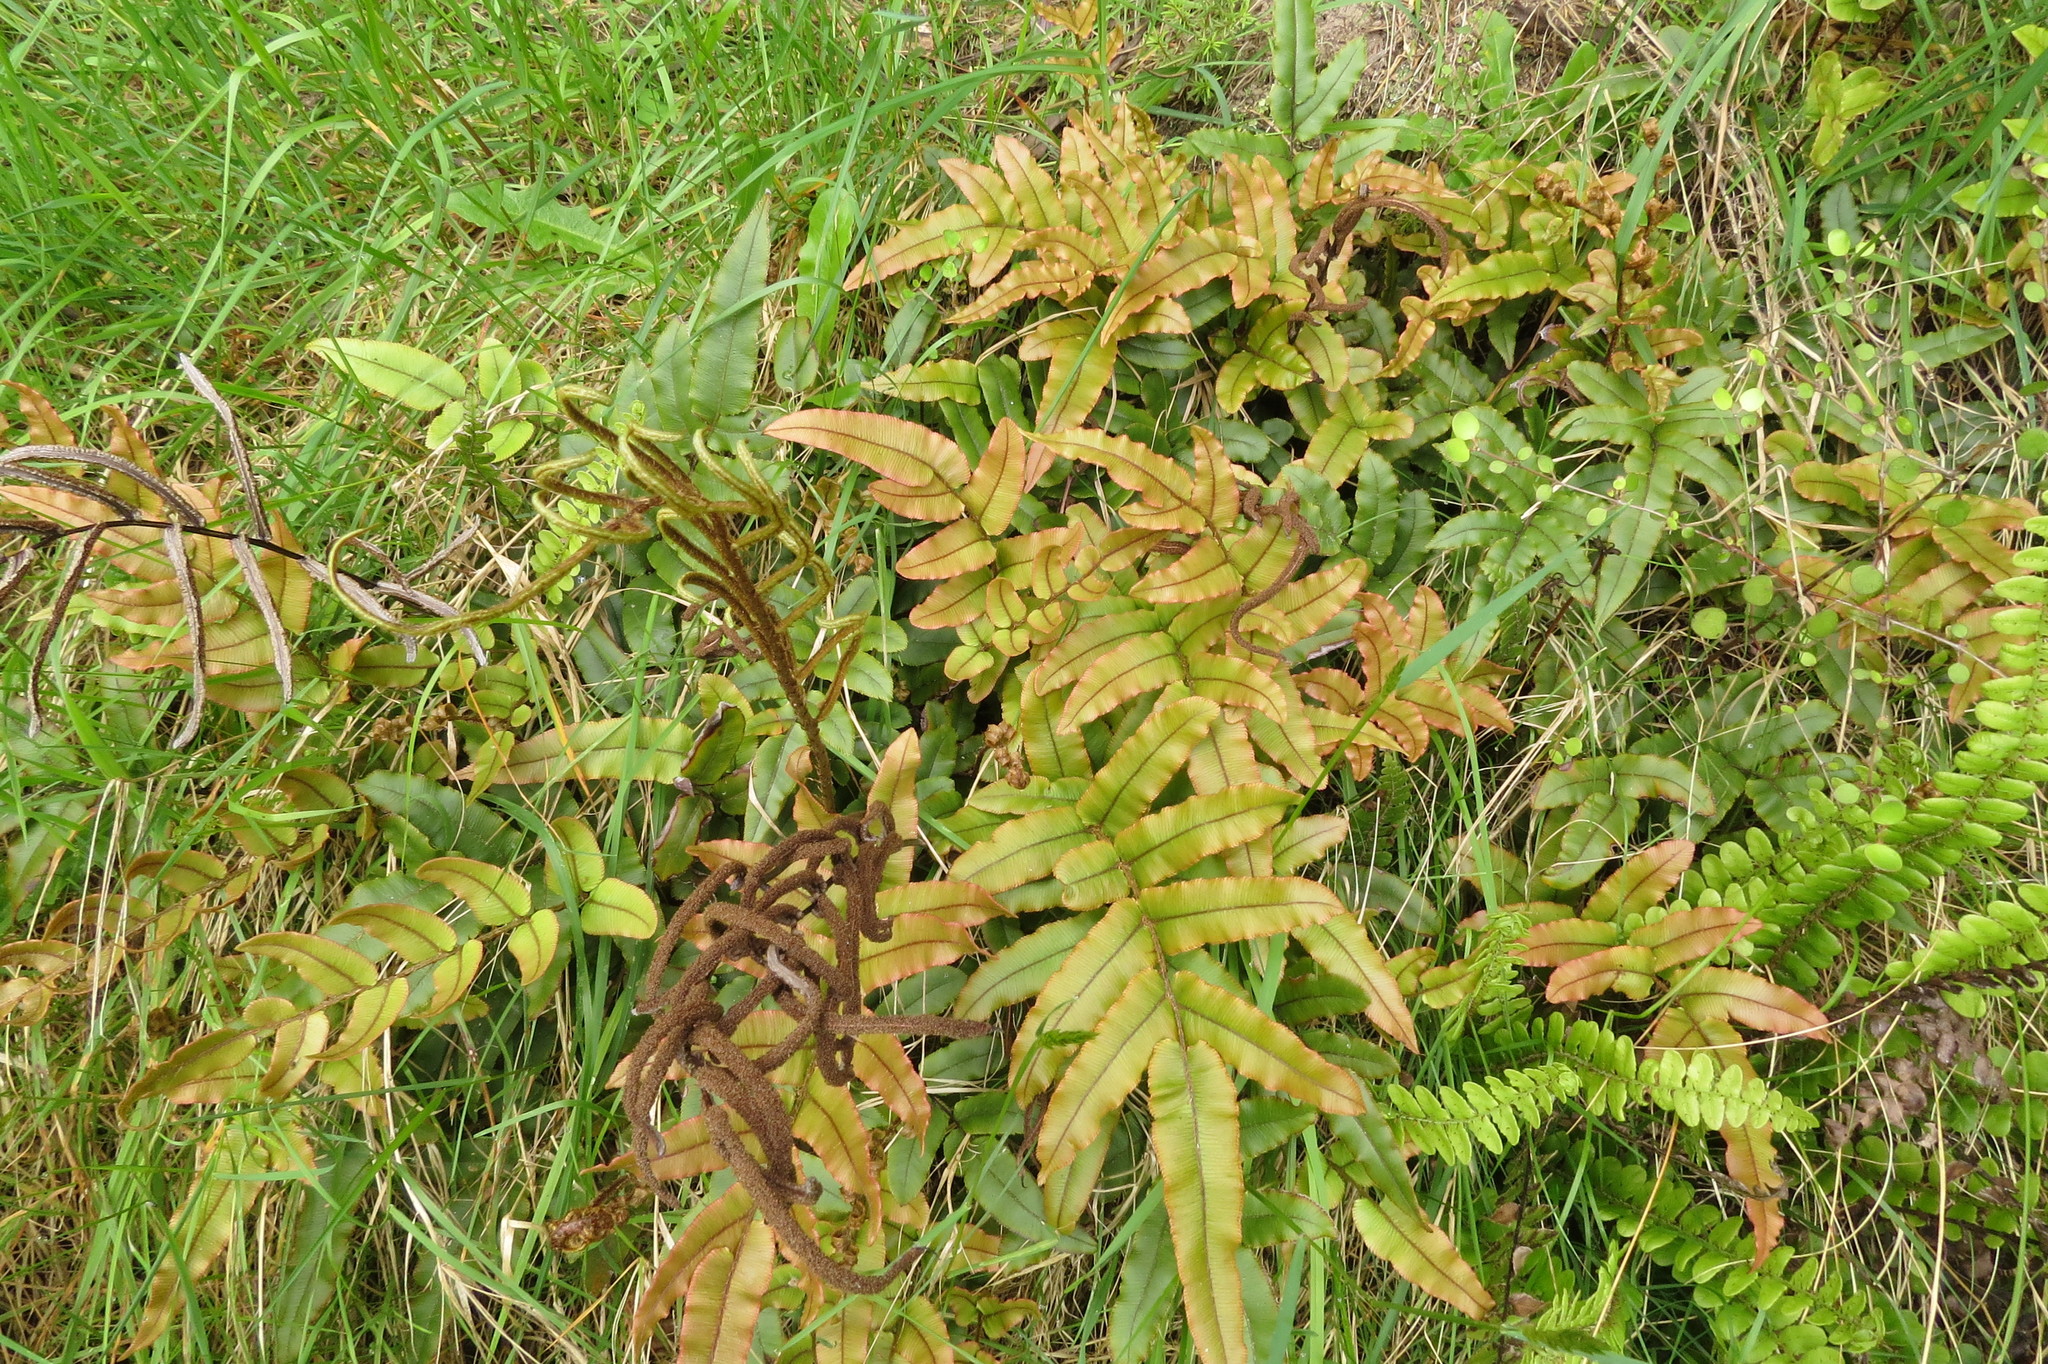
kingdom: Plantae
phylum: Tracheophyta
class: Polypodiopsida
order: Polypodiales
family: Blechnaceae
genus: Parablechnum
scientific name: Parablechnum procerum
